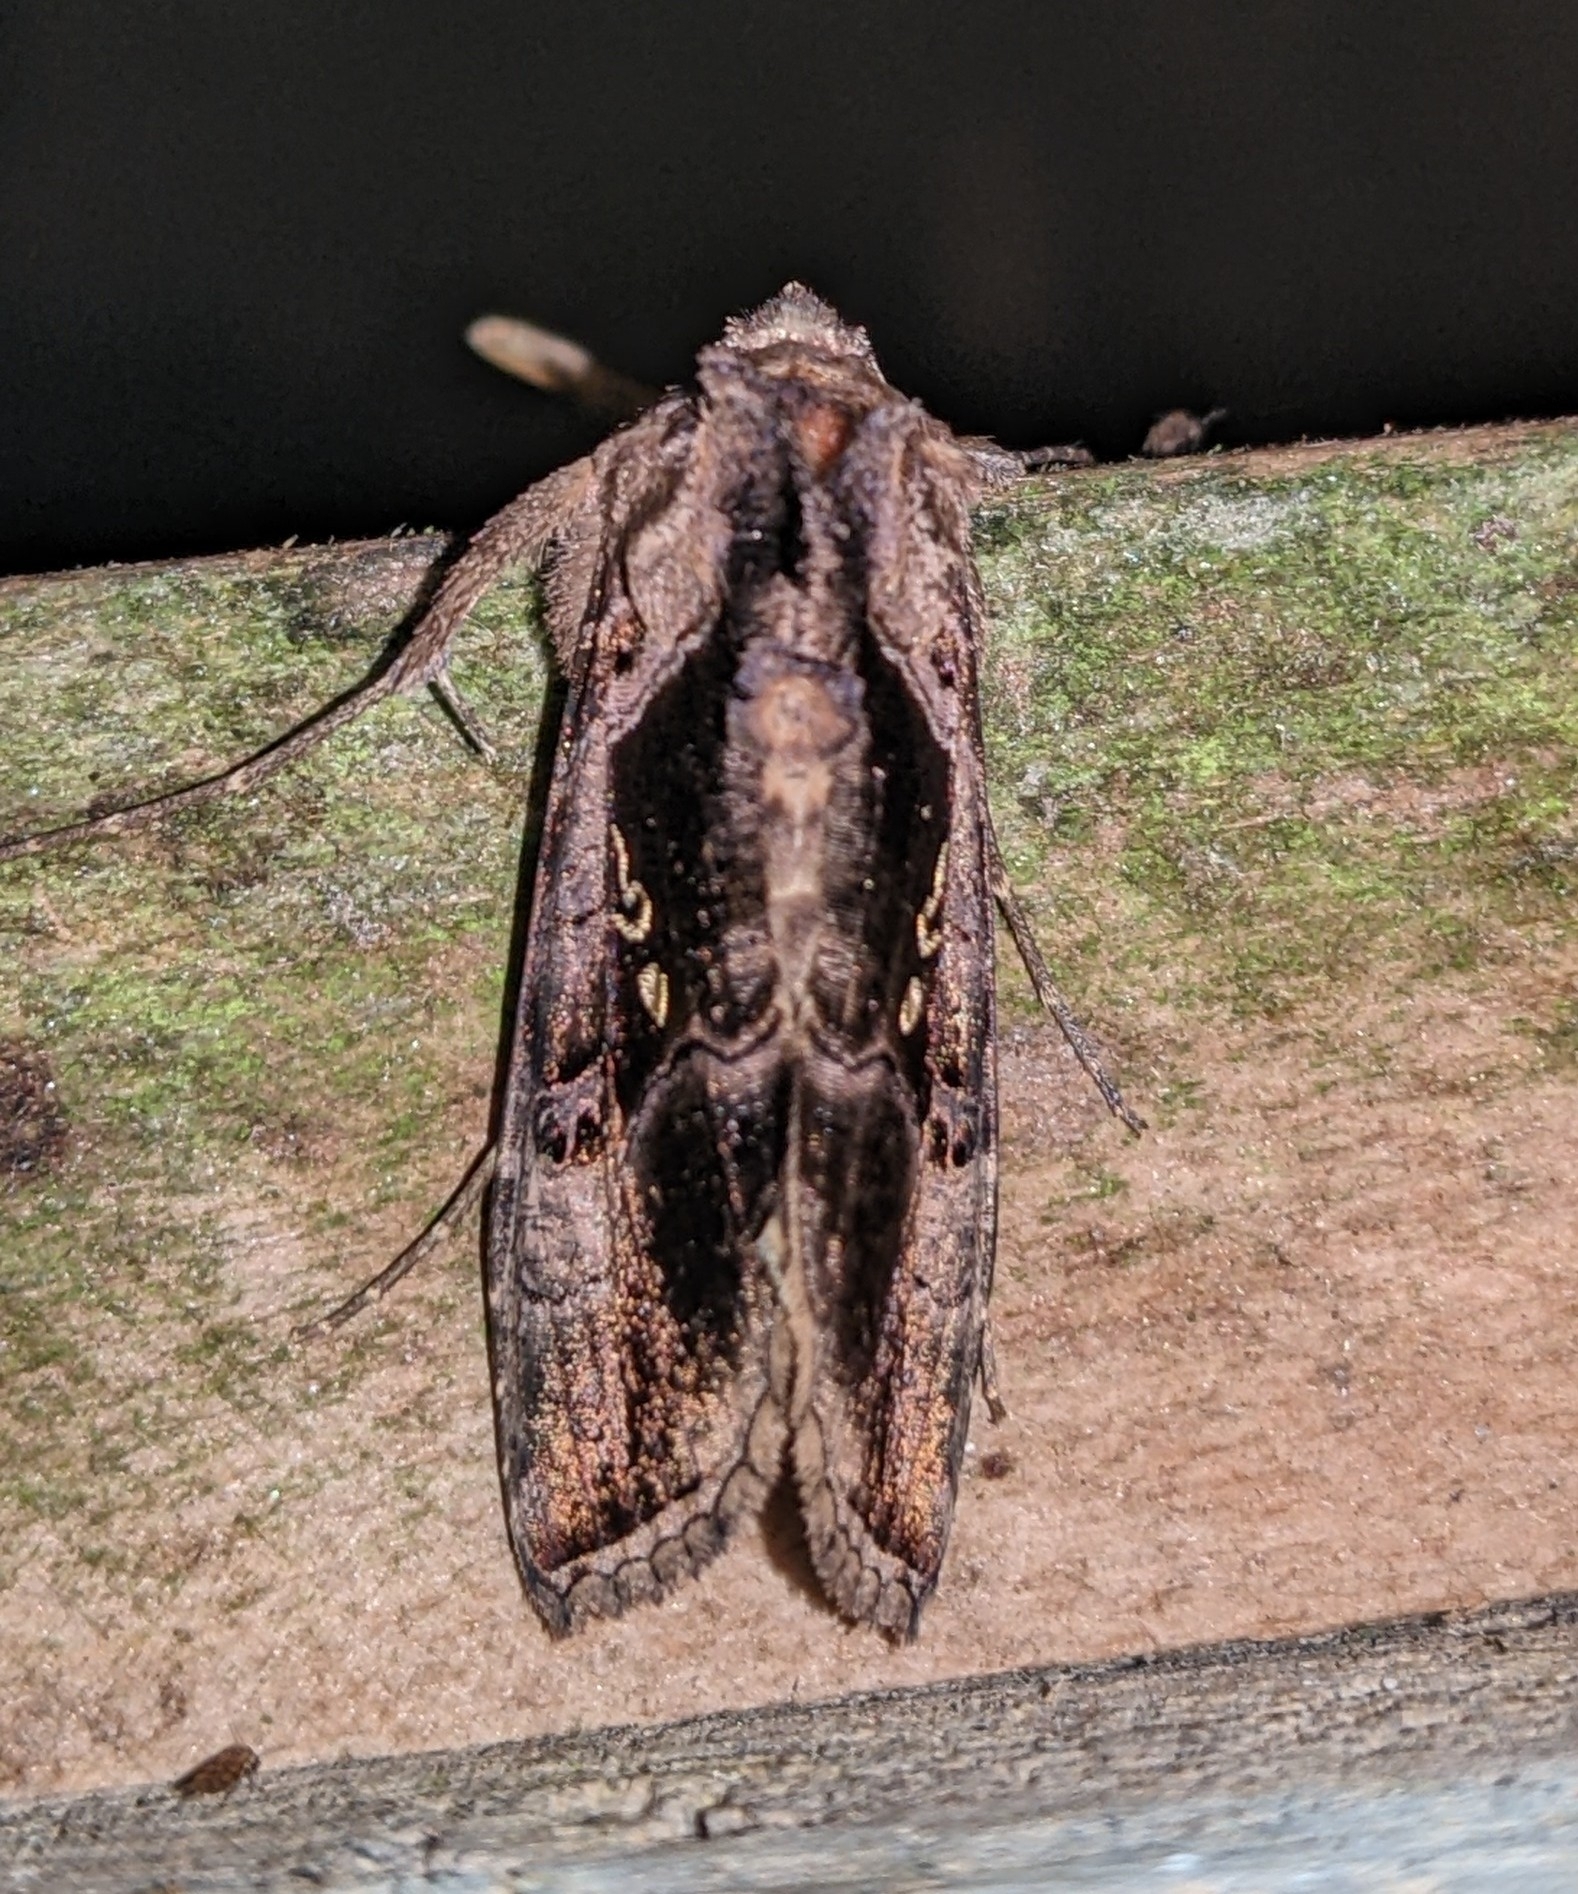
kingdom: Animalia
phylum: Arthropoda
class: Insecta
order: Lepidoptera
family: Noctuidae
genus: Agrapha
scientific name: Agrapha meretricia
